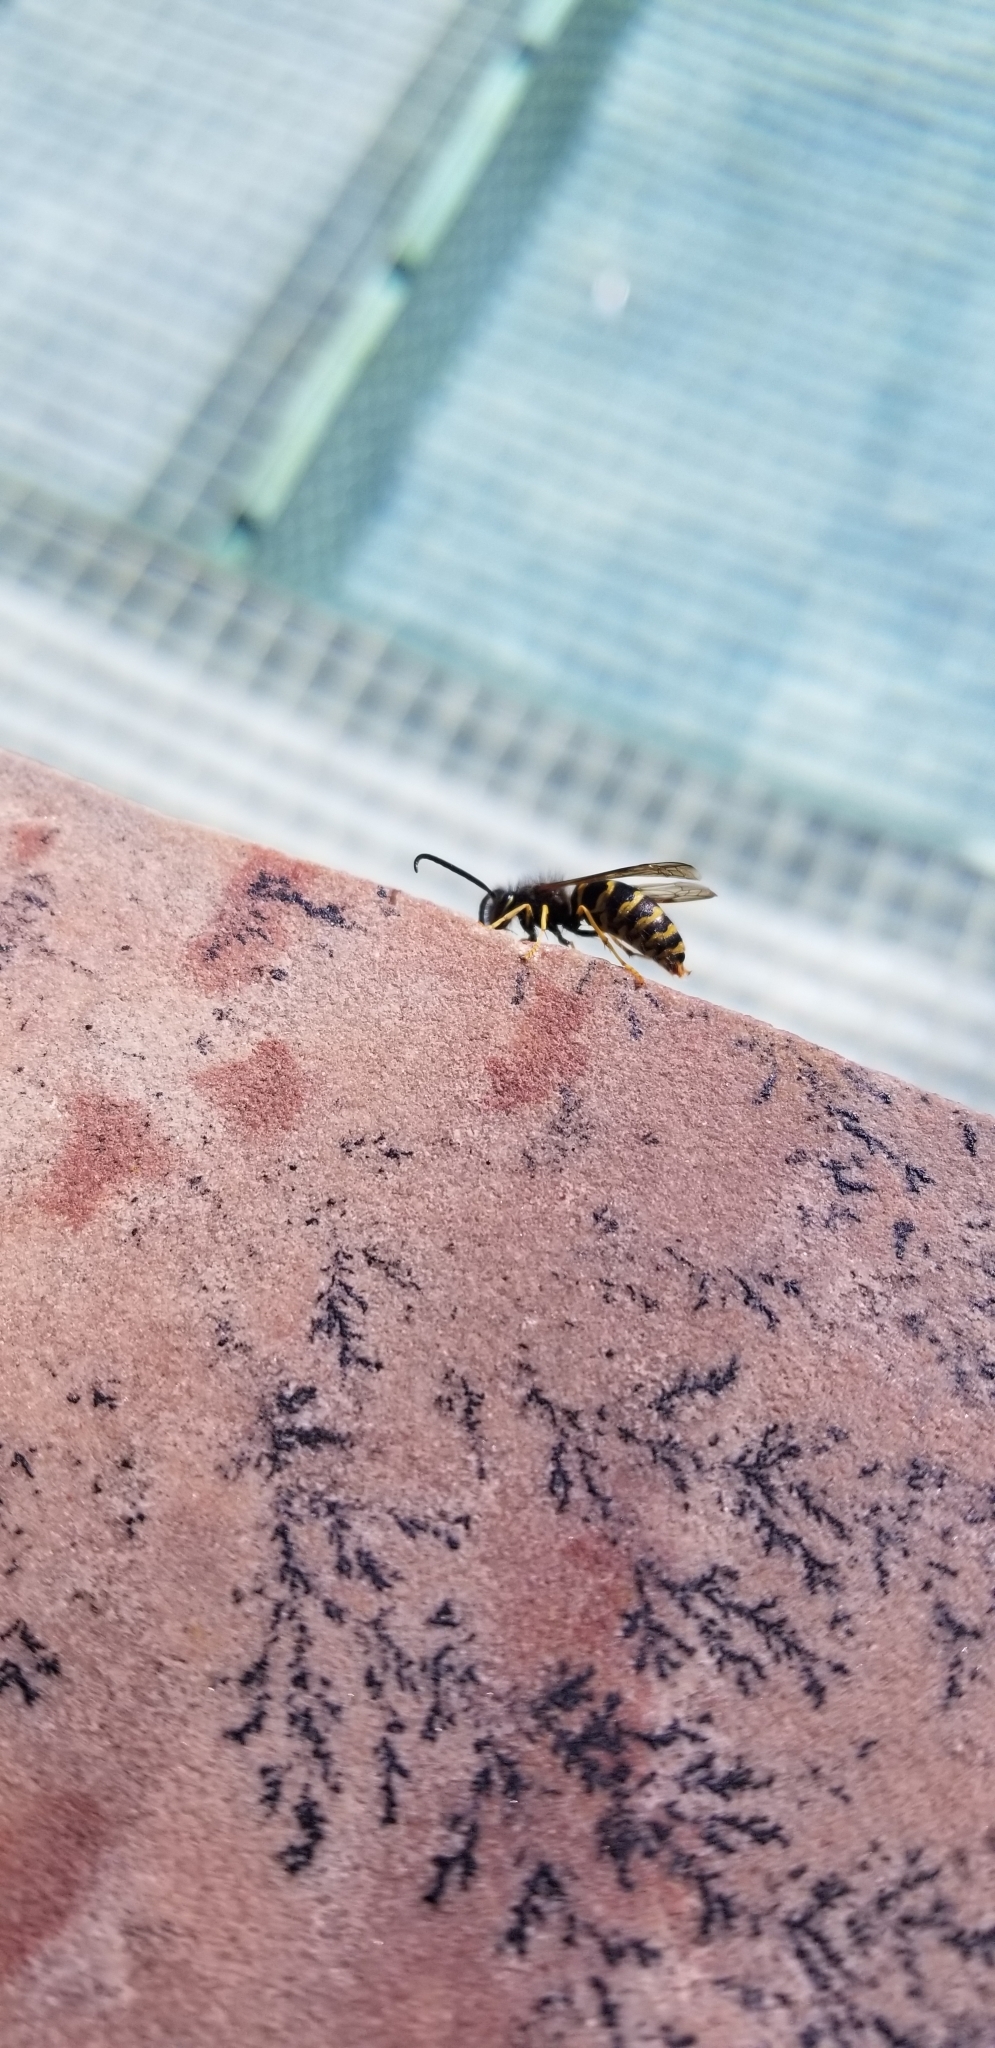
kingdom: Animalia
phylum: Arthropoda
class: Insecta
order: Hymenoptera
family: Vespidae
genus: Vespula
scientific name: Vespula alascensis
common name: Alaska yellowjacket
